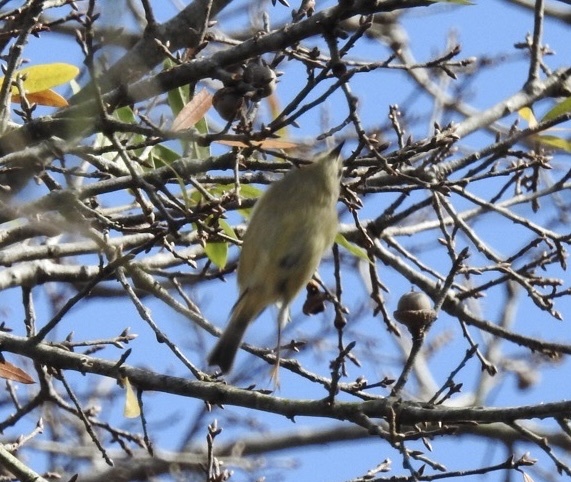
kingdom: Animalia
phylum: Chordata
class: Aves
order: Passeriformes
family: Regulidae
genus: Regulus
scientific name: Regulus calendula
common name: Ruby-crowned kinglet
